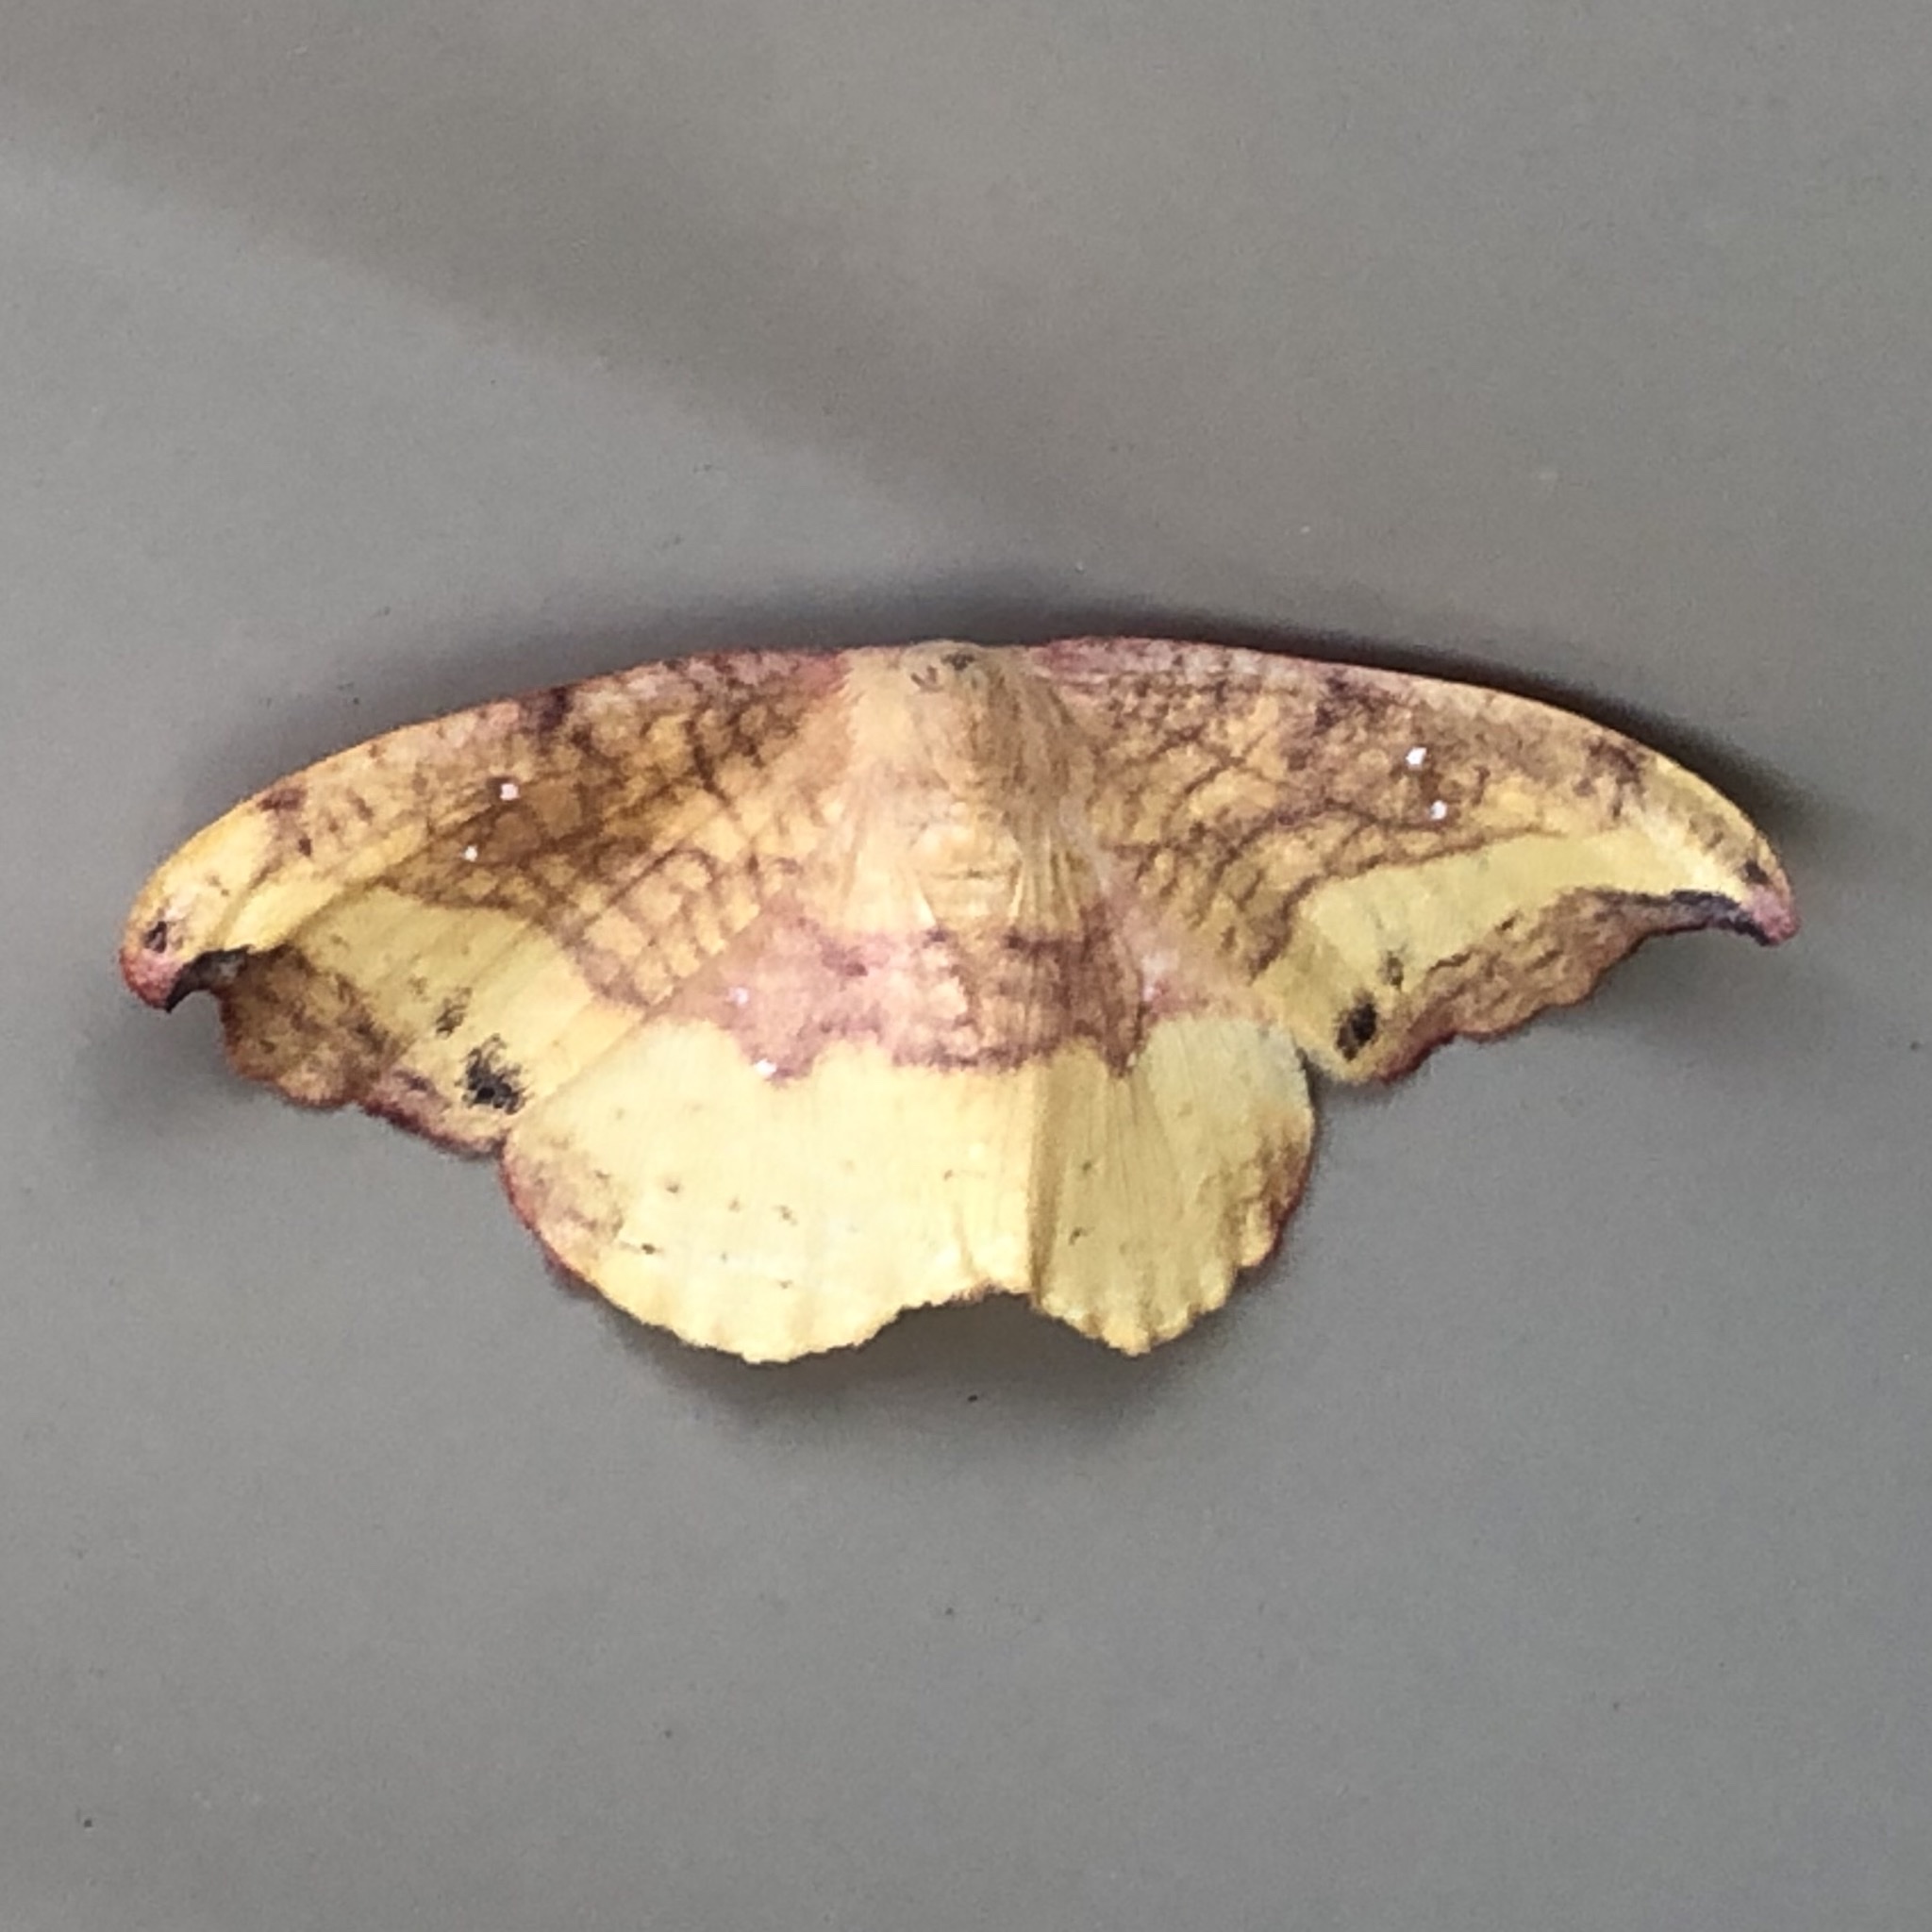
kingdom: Animalia
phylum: Arthropoda
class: Insecta
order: Lepidoptera
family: Drepanidae
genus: Oreta
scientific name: Oreta rosea
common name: Rose hooktip
